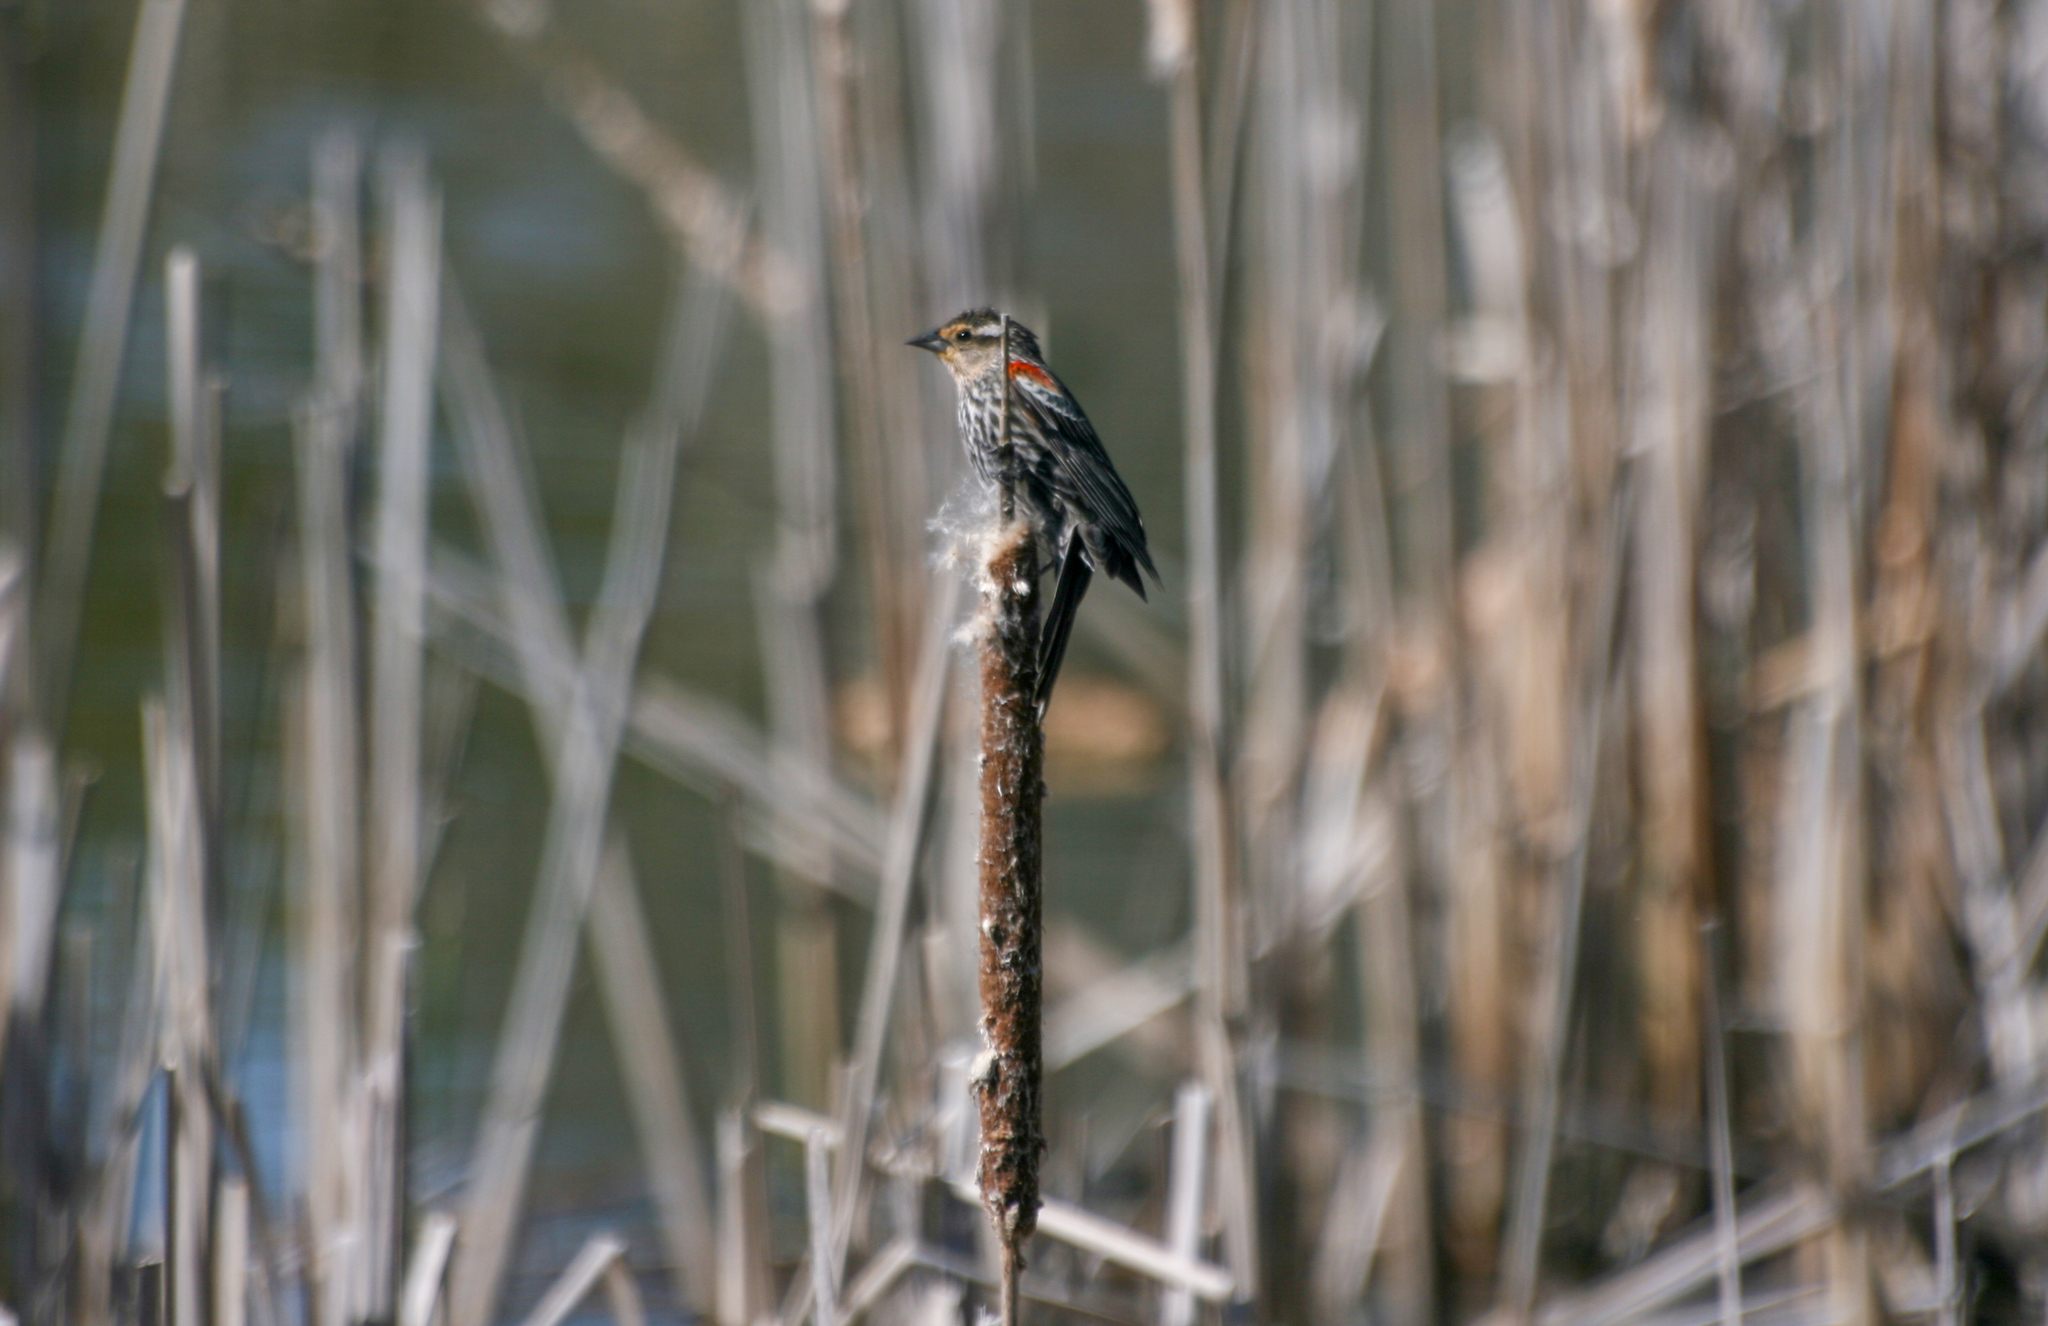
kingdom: Animalia
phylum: Chordata
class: Aves
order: Passeriformes
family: Icteridae
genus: Agelaius
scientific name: Agelaius phoeniceus
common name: Red-winged blackbird
